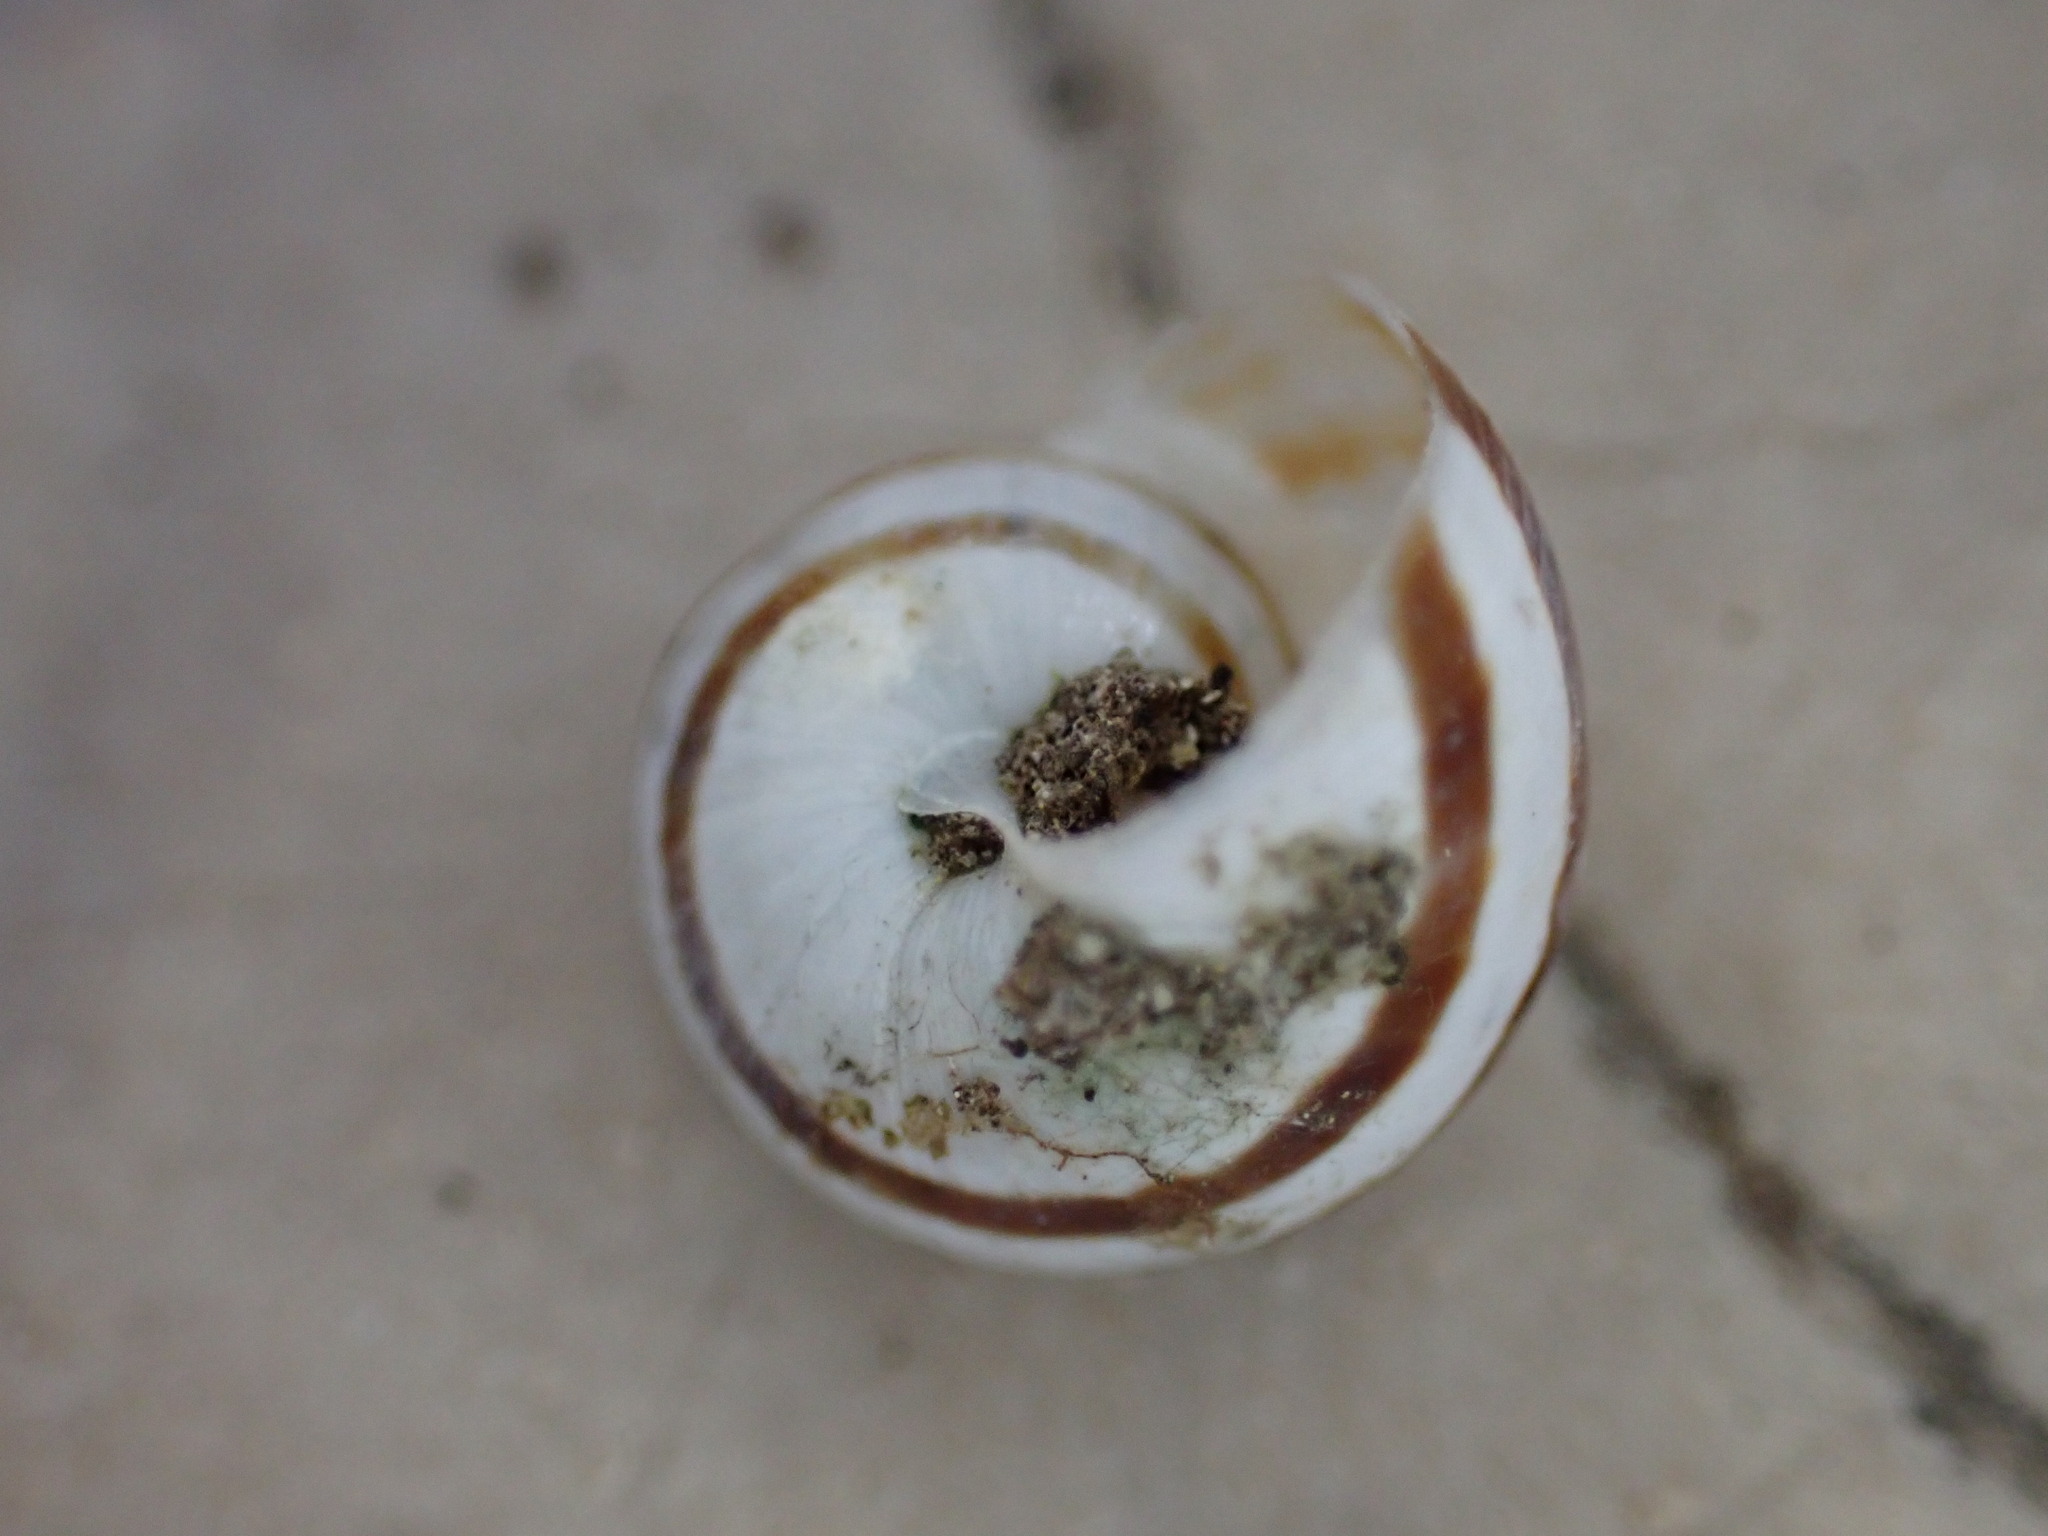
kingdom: Animalia
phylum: Mollusca
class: Gastropoda
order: Stylommatophora
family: Helicidae
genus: Pseudotachea
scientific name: Pseudotachea splendida
